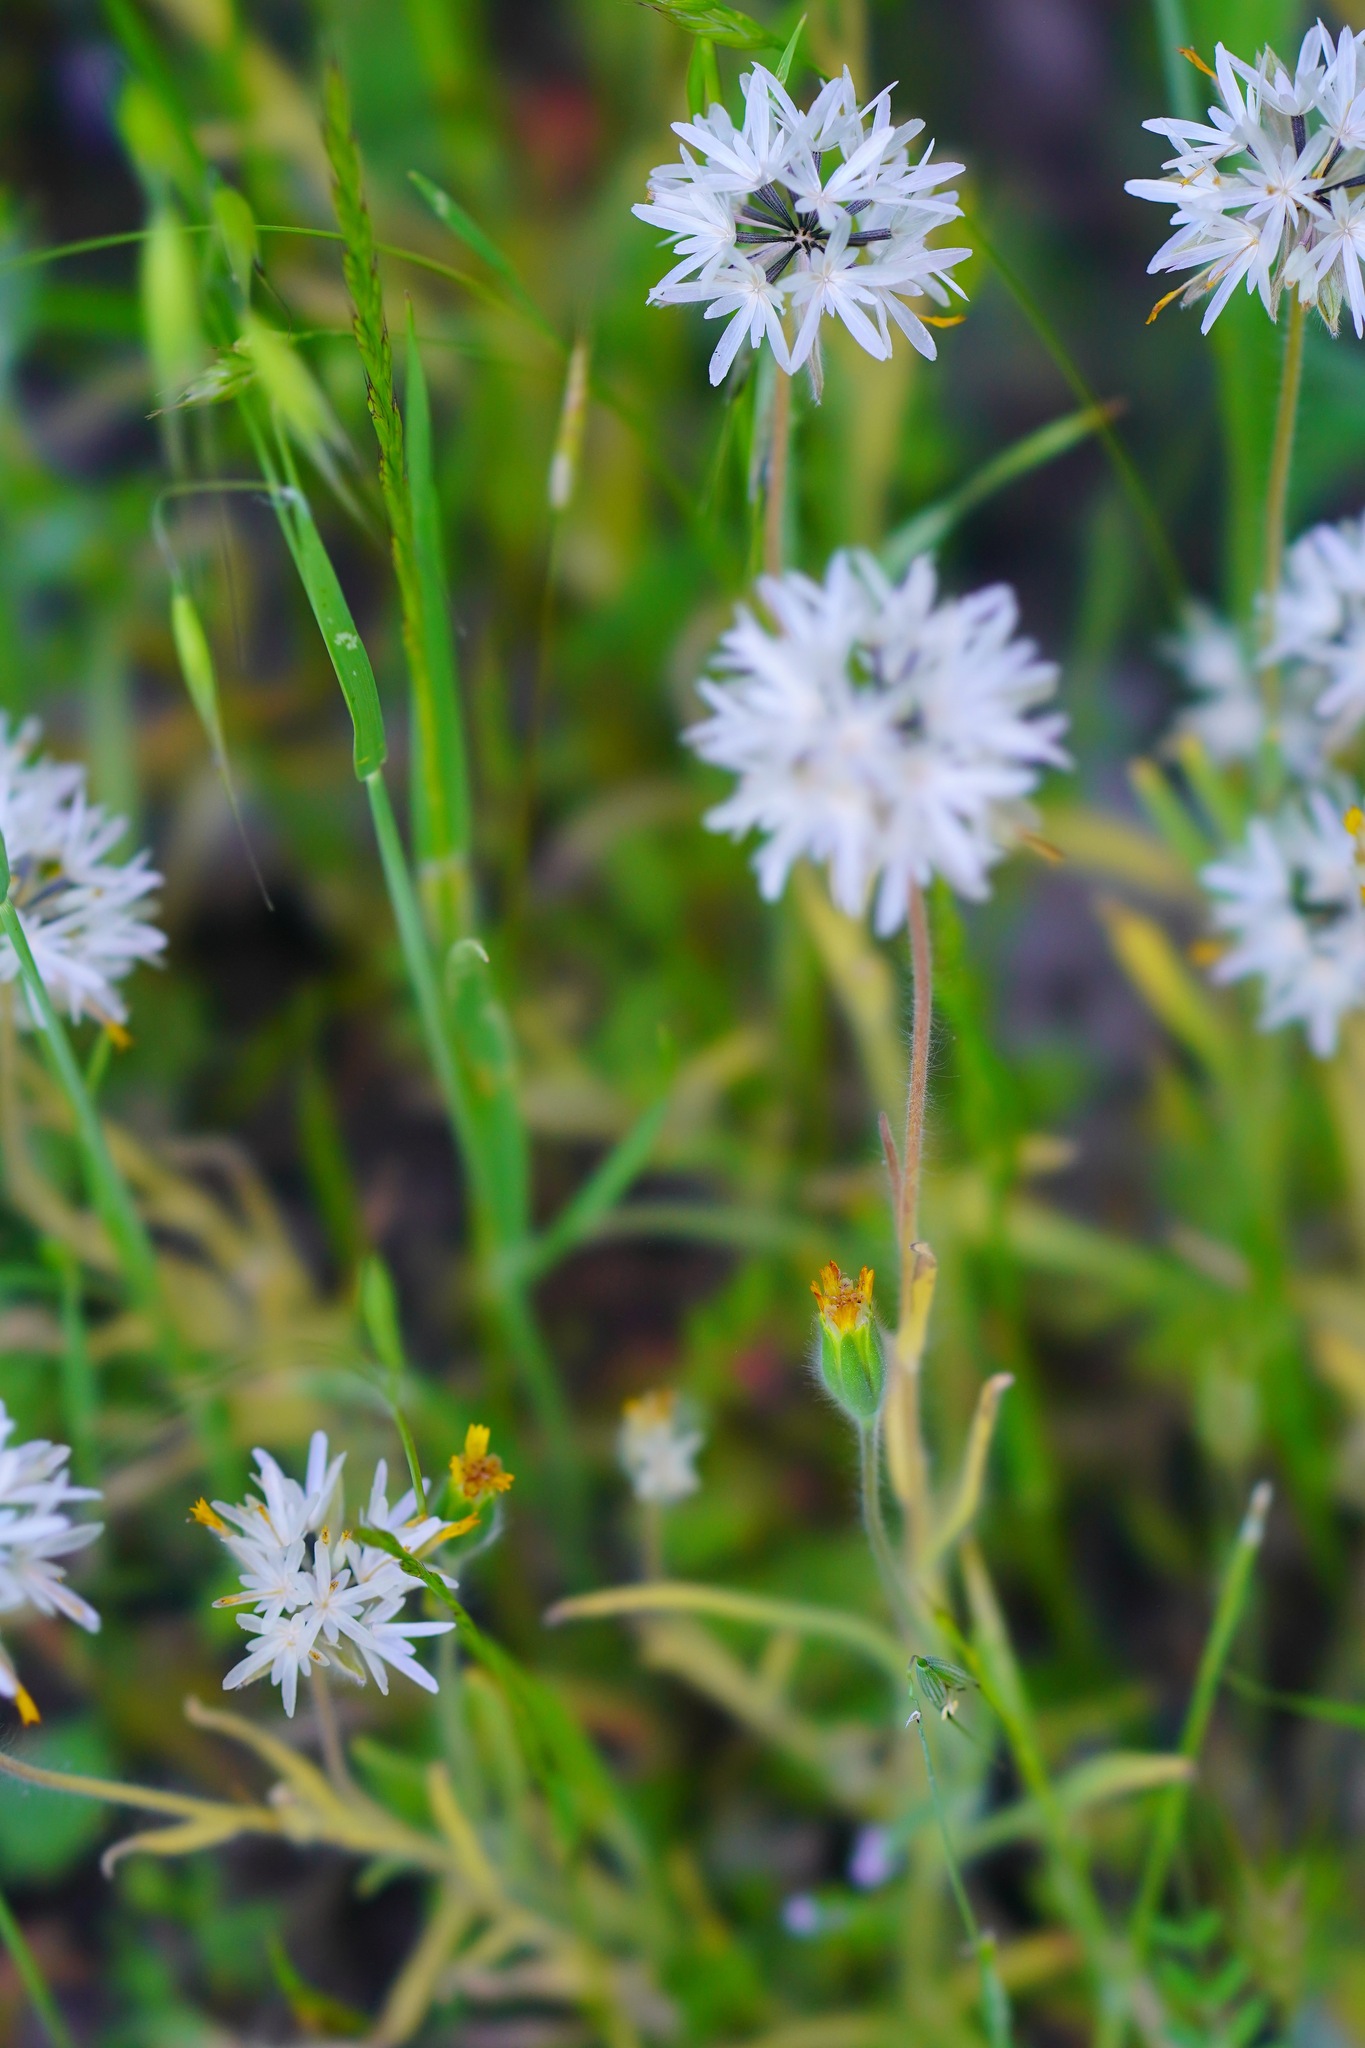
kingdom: Plantae
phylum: Tracheophyta
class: Magnoliopsida
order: Asterales
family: Asteraceae
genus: Achyrachaena
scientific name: Achyrachaena mollis
